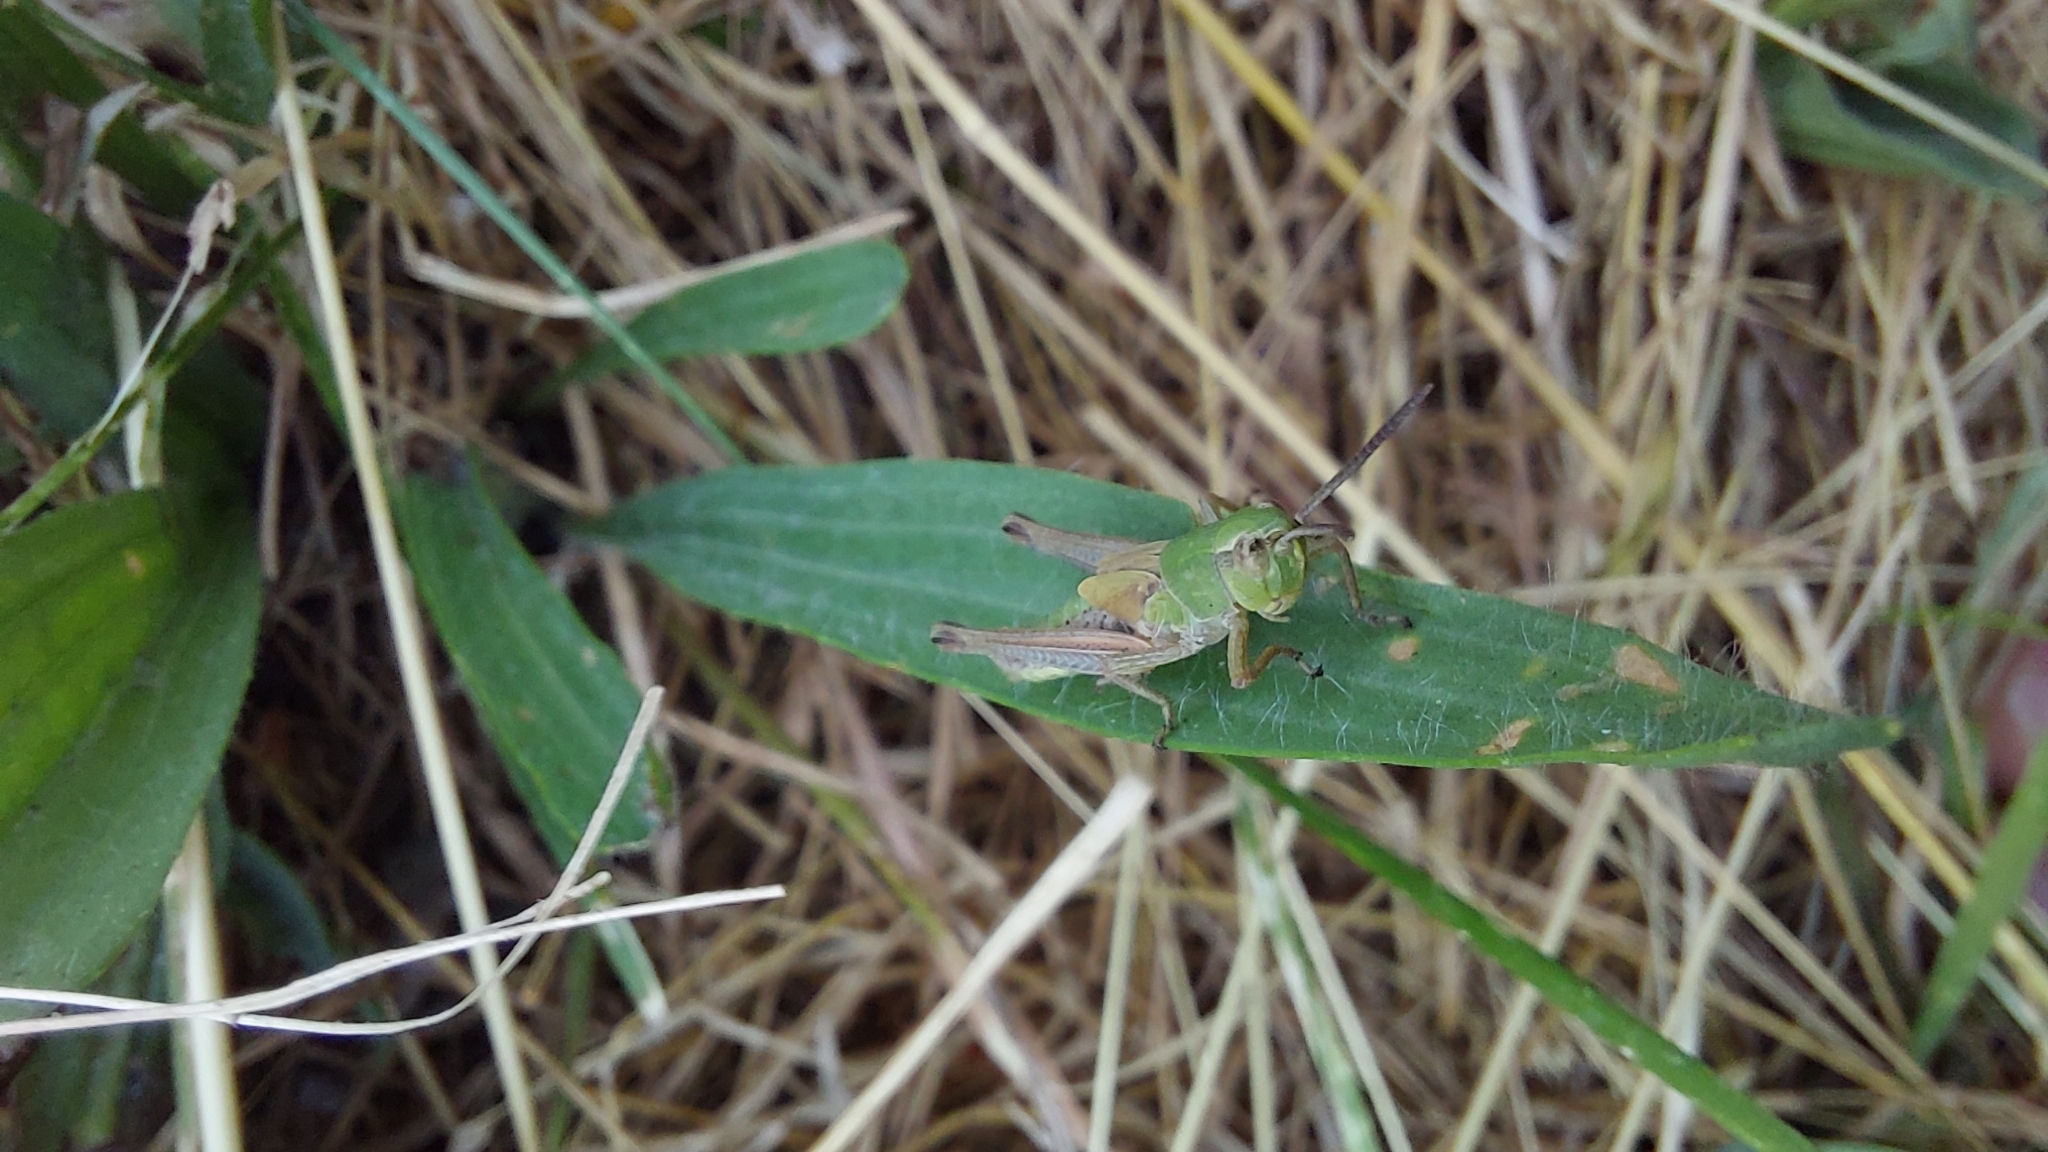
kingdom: Animalia
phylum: Arthropoda
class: Insecta
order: Orthoptera
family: Acrididae
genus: Pseudochorthippus
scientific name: Pseudochorthippus parallelus
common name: Meadow grasshopper
